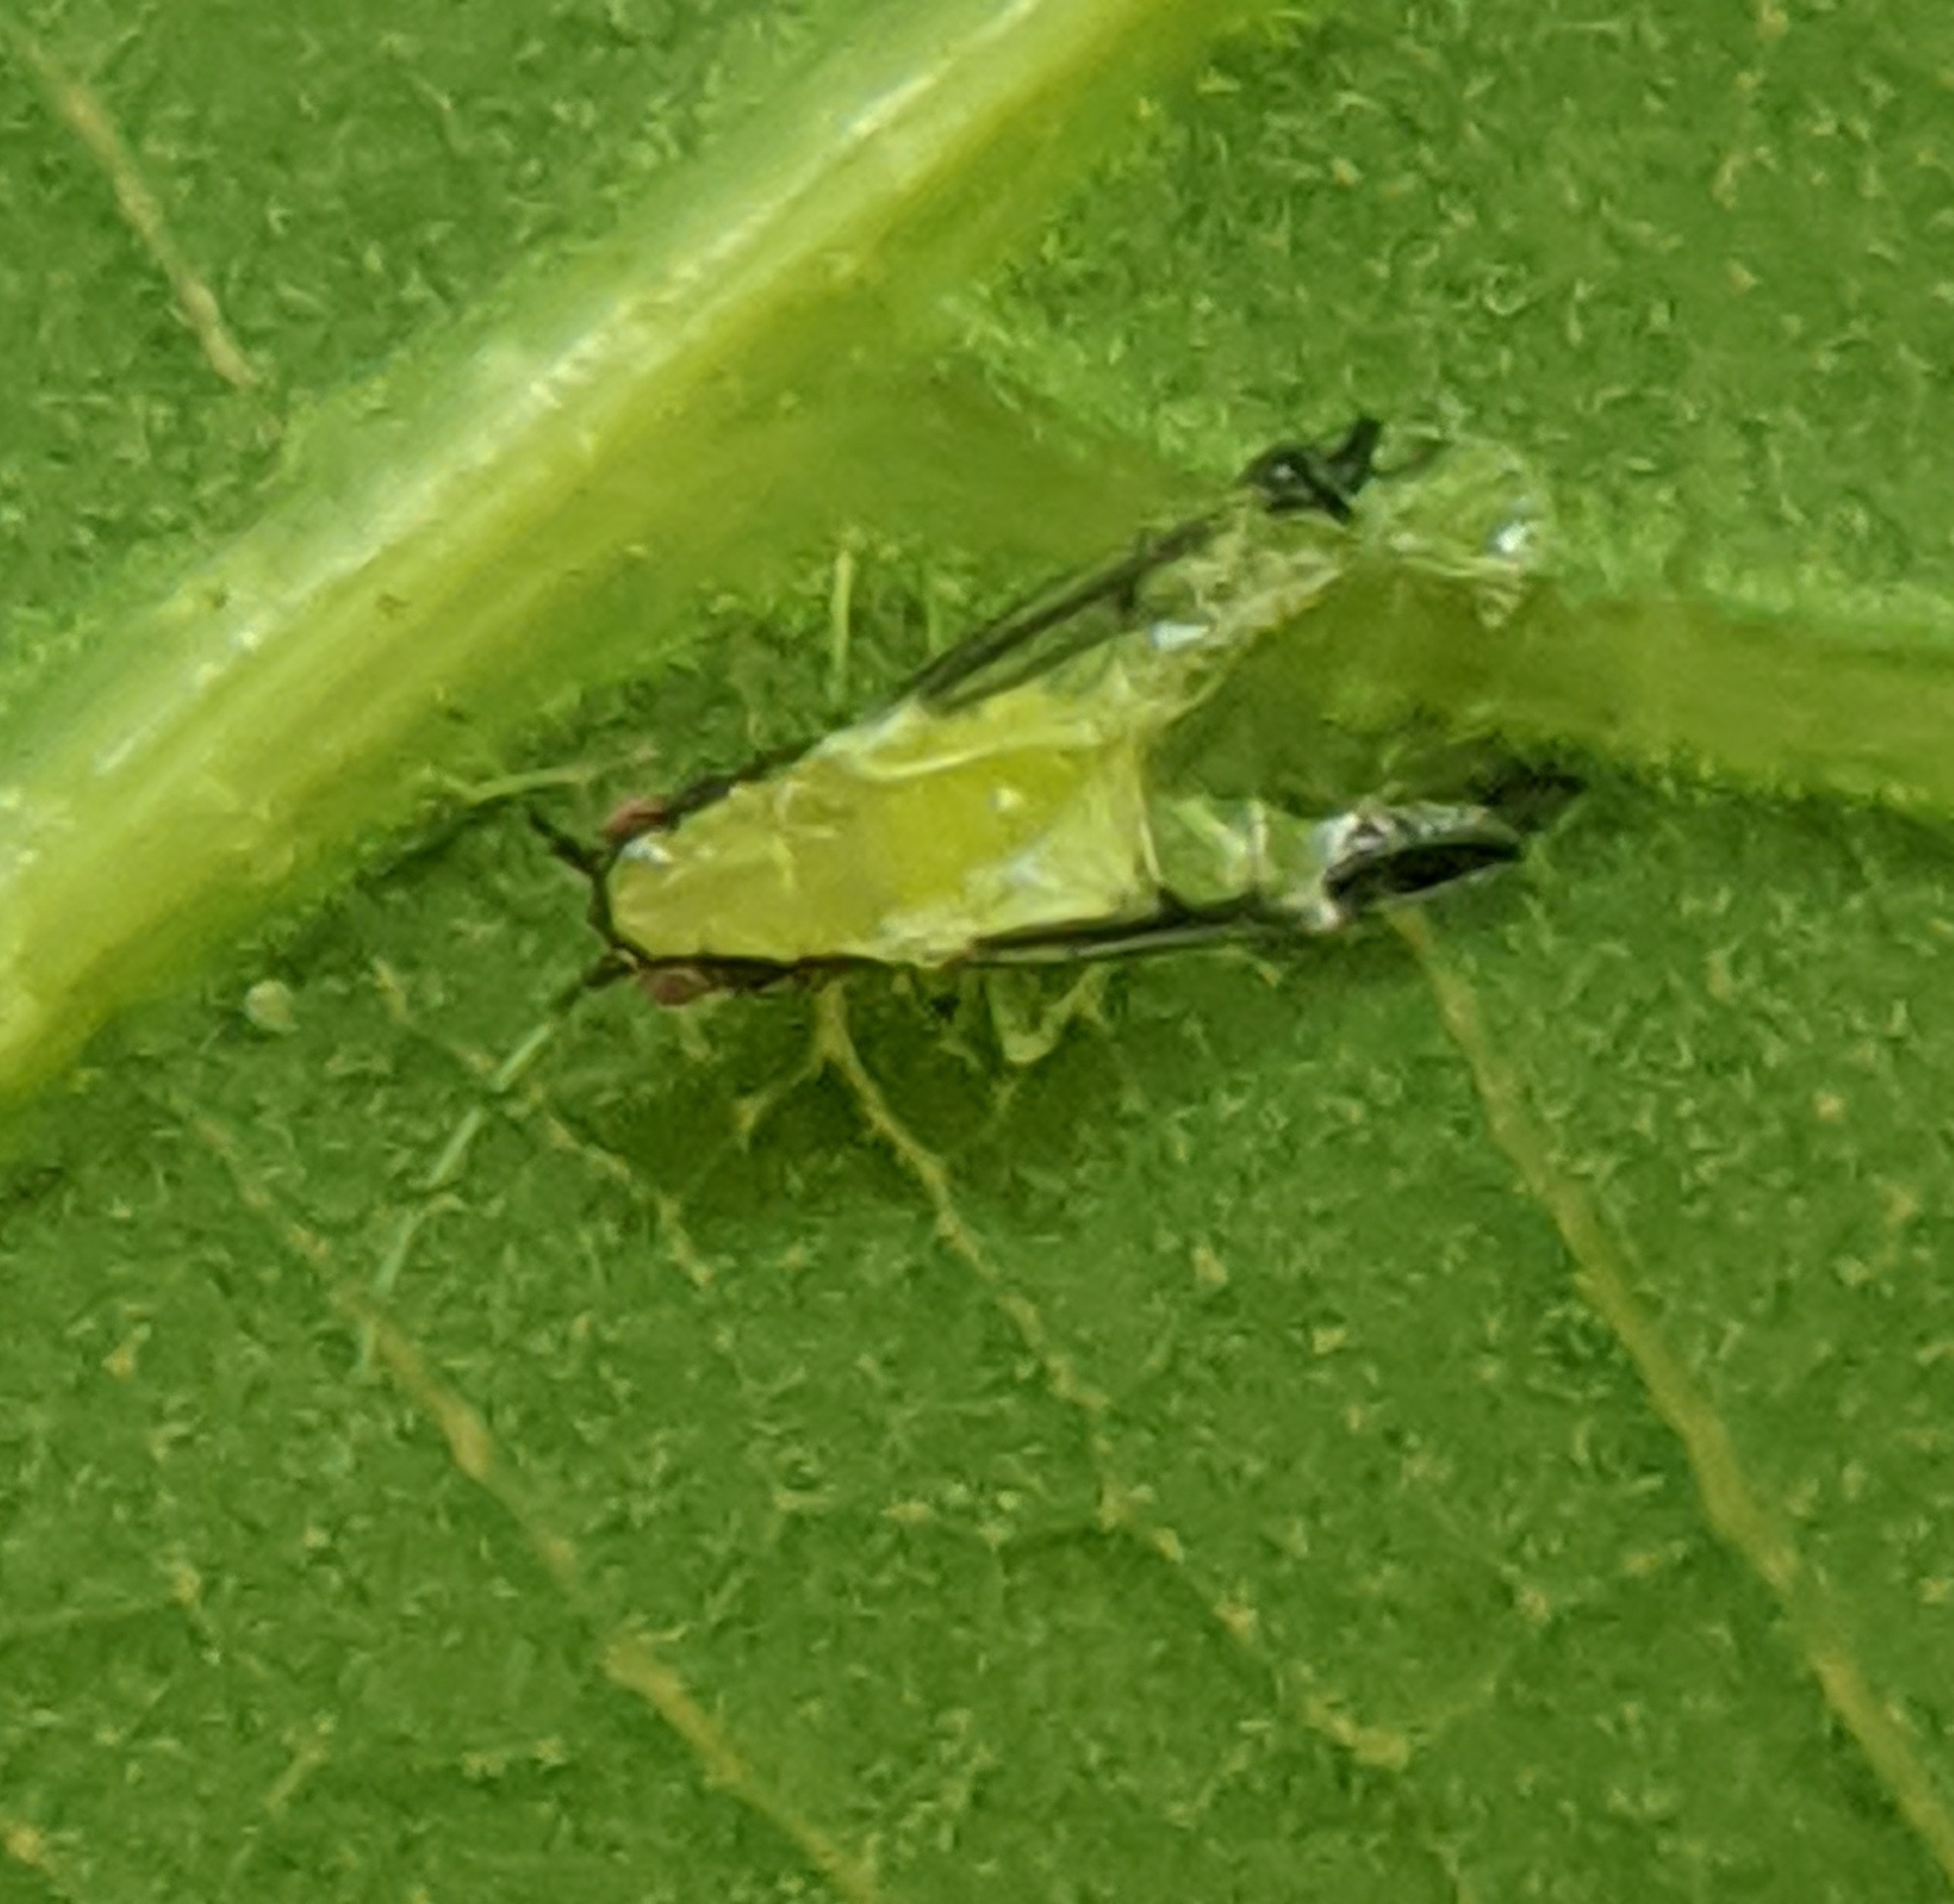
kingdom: Animalia
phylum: Arthropoda
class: Insecta
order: Hemiptera
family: Aphididae
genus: Monellia
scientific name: Monellia caryella
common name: Blackmargined aphid
